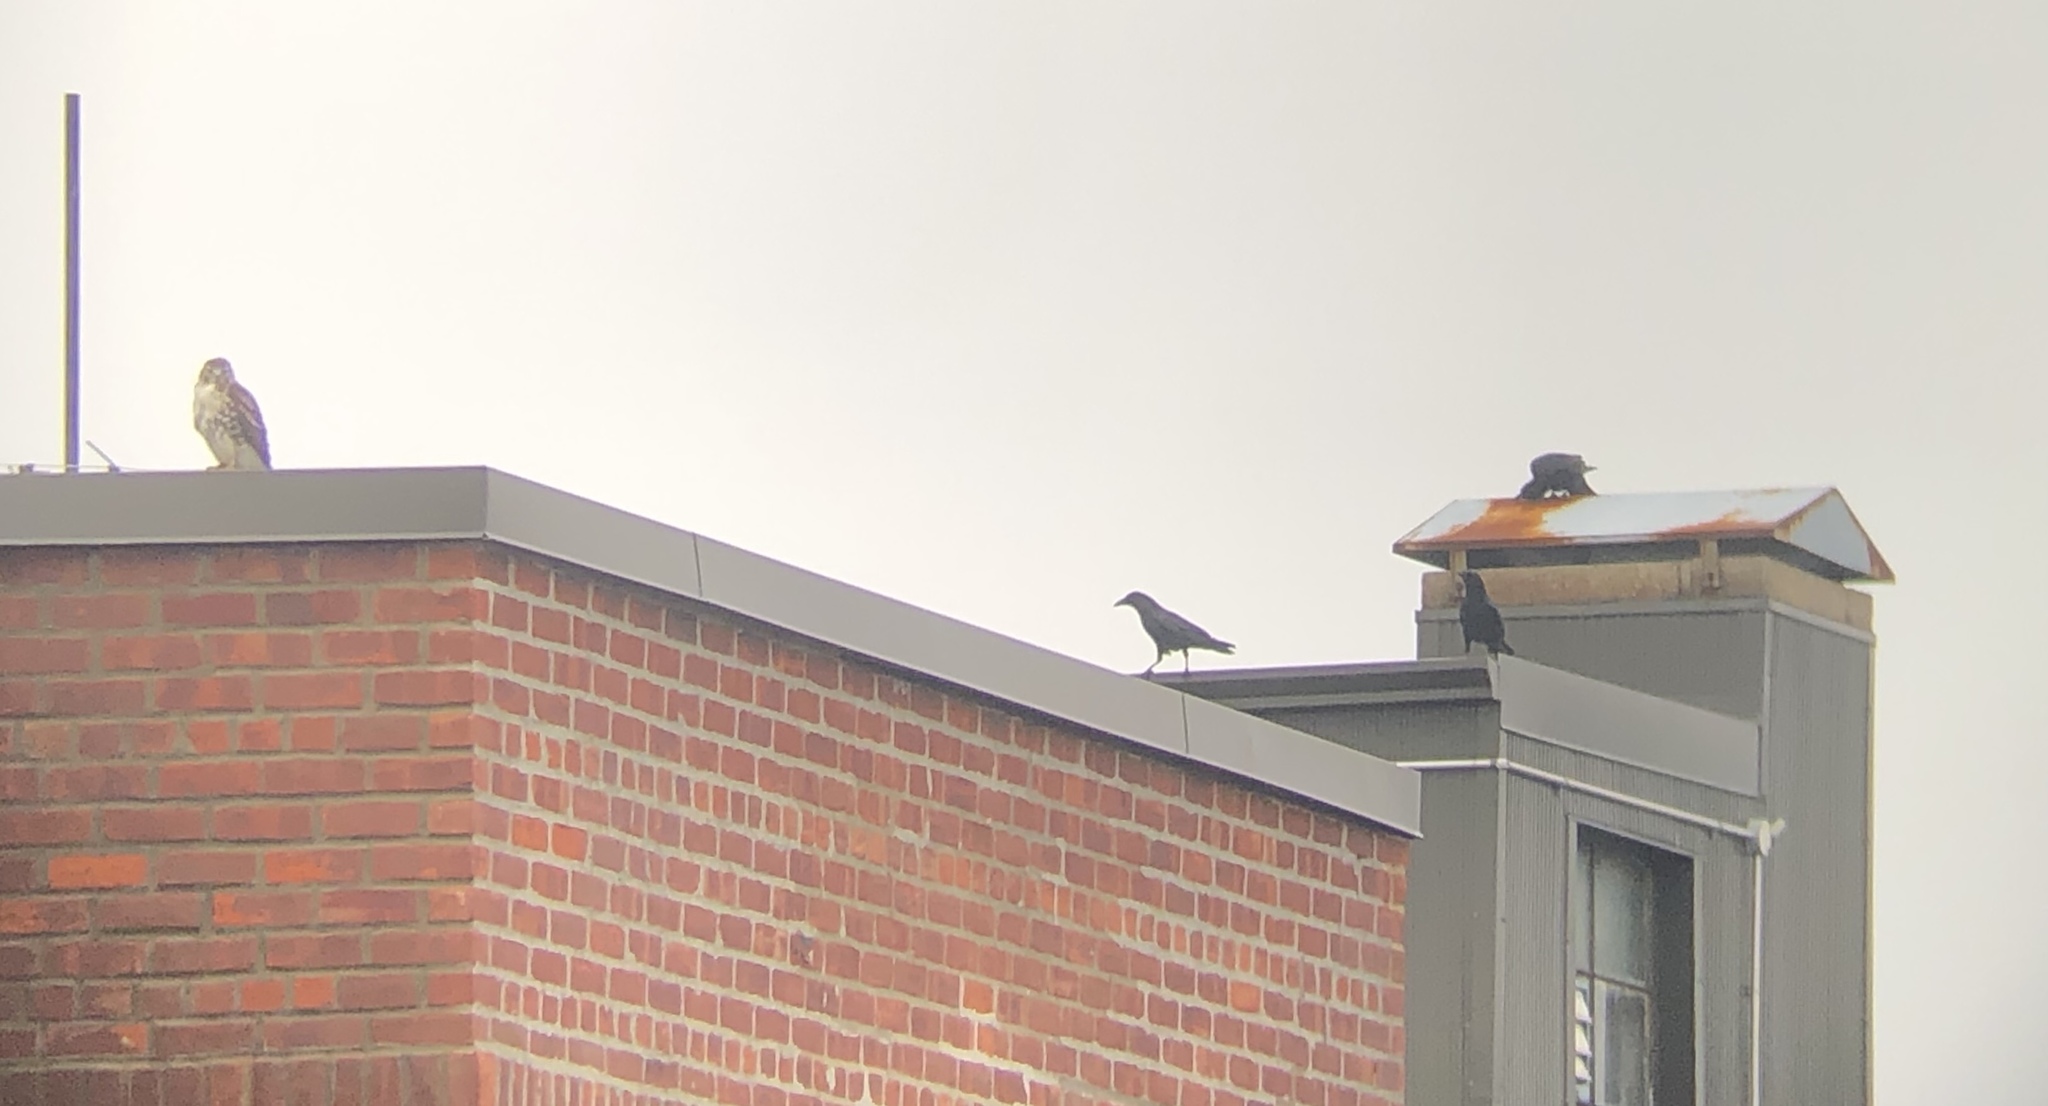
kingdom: Animalia
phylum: Chordata
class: Aves
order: Accipitriformes
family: Accipitridae
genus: Buteo
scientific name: Buteo jamaicensis
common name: Red-tailed hawk
